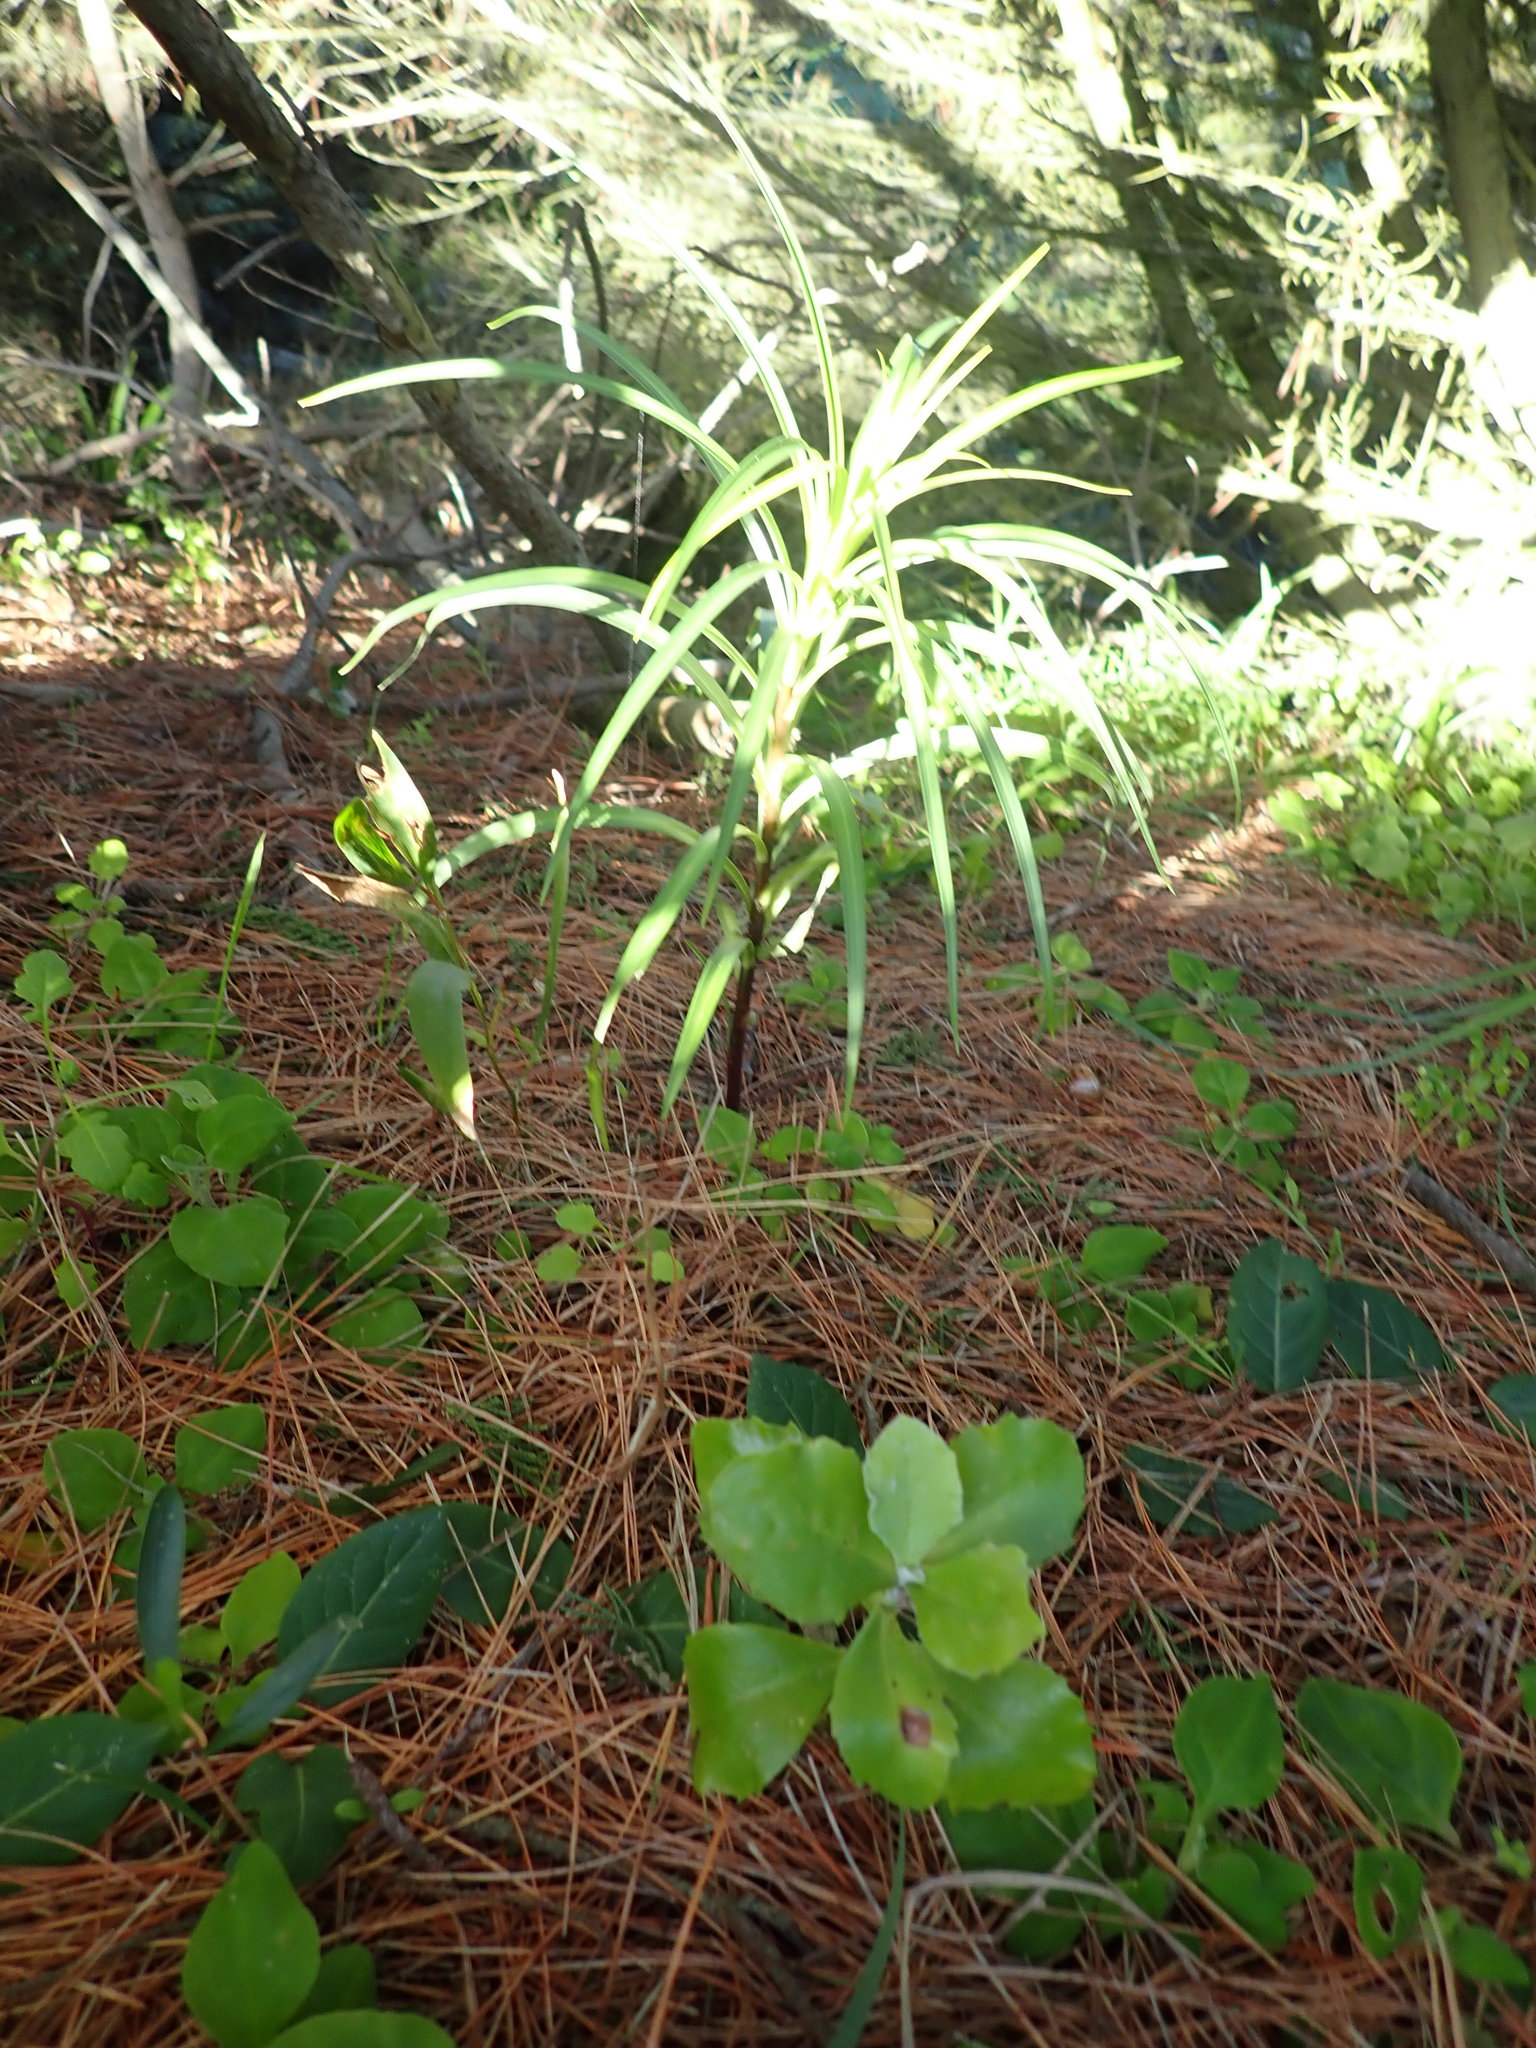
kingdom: Plantae
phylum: Tracheophyta
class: Liliopsida
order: Liliales
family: Liliaceae
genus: Lilium
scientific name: Lilium formosanum
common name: Formosa lily
